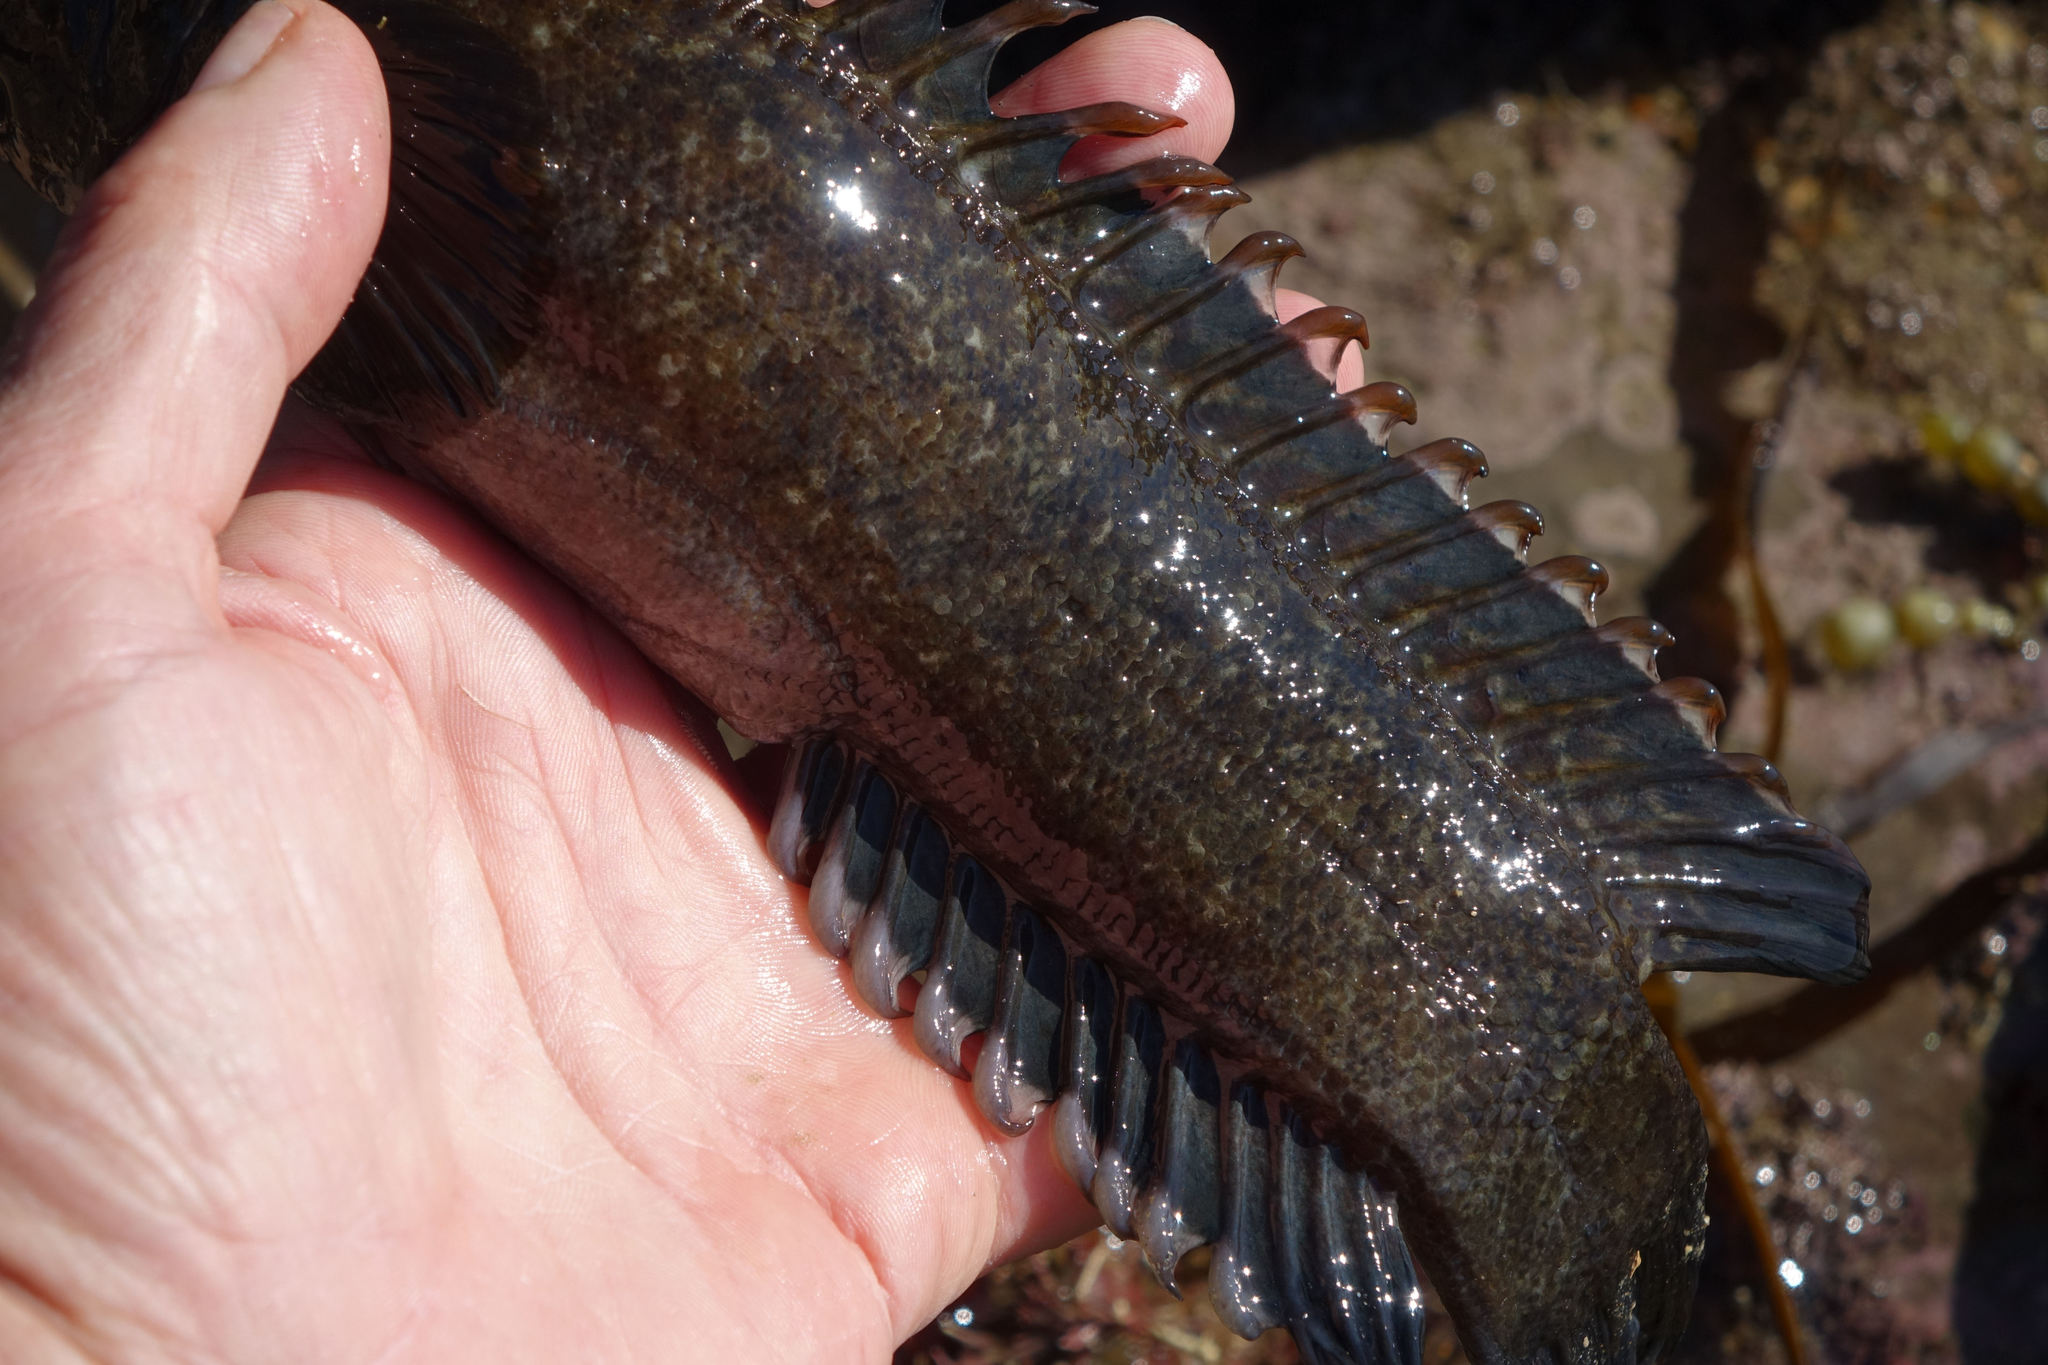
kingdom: Animalia
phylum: Chordata
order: Perciformes
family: Plesiopidae
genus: Acanthoclinus
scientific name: Acanthoclinus fuscus
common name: Olive rockfish
